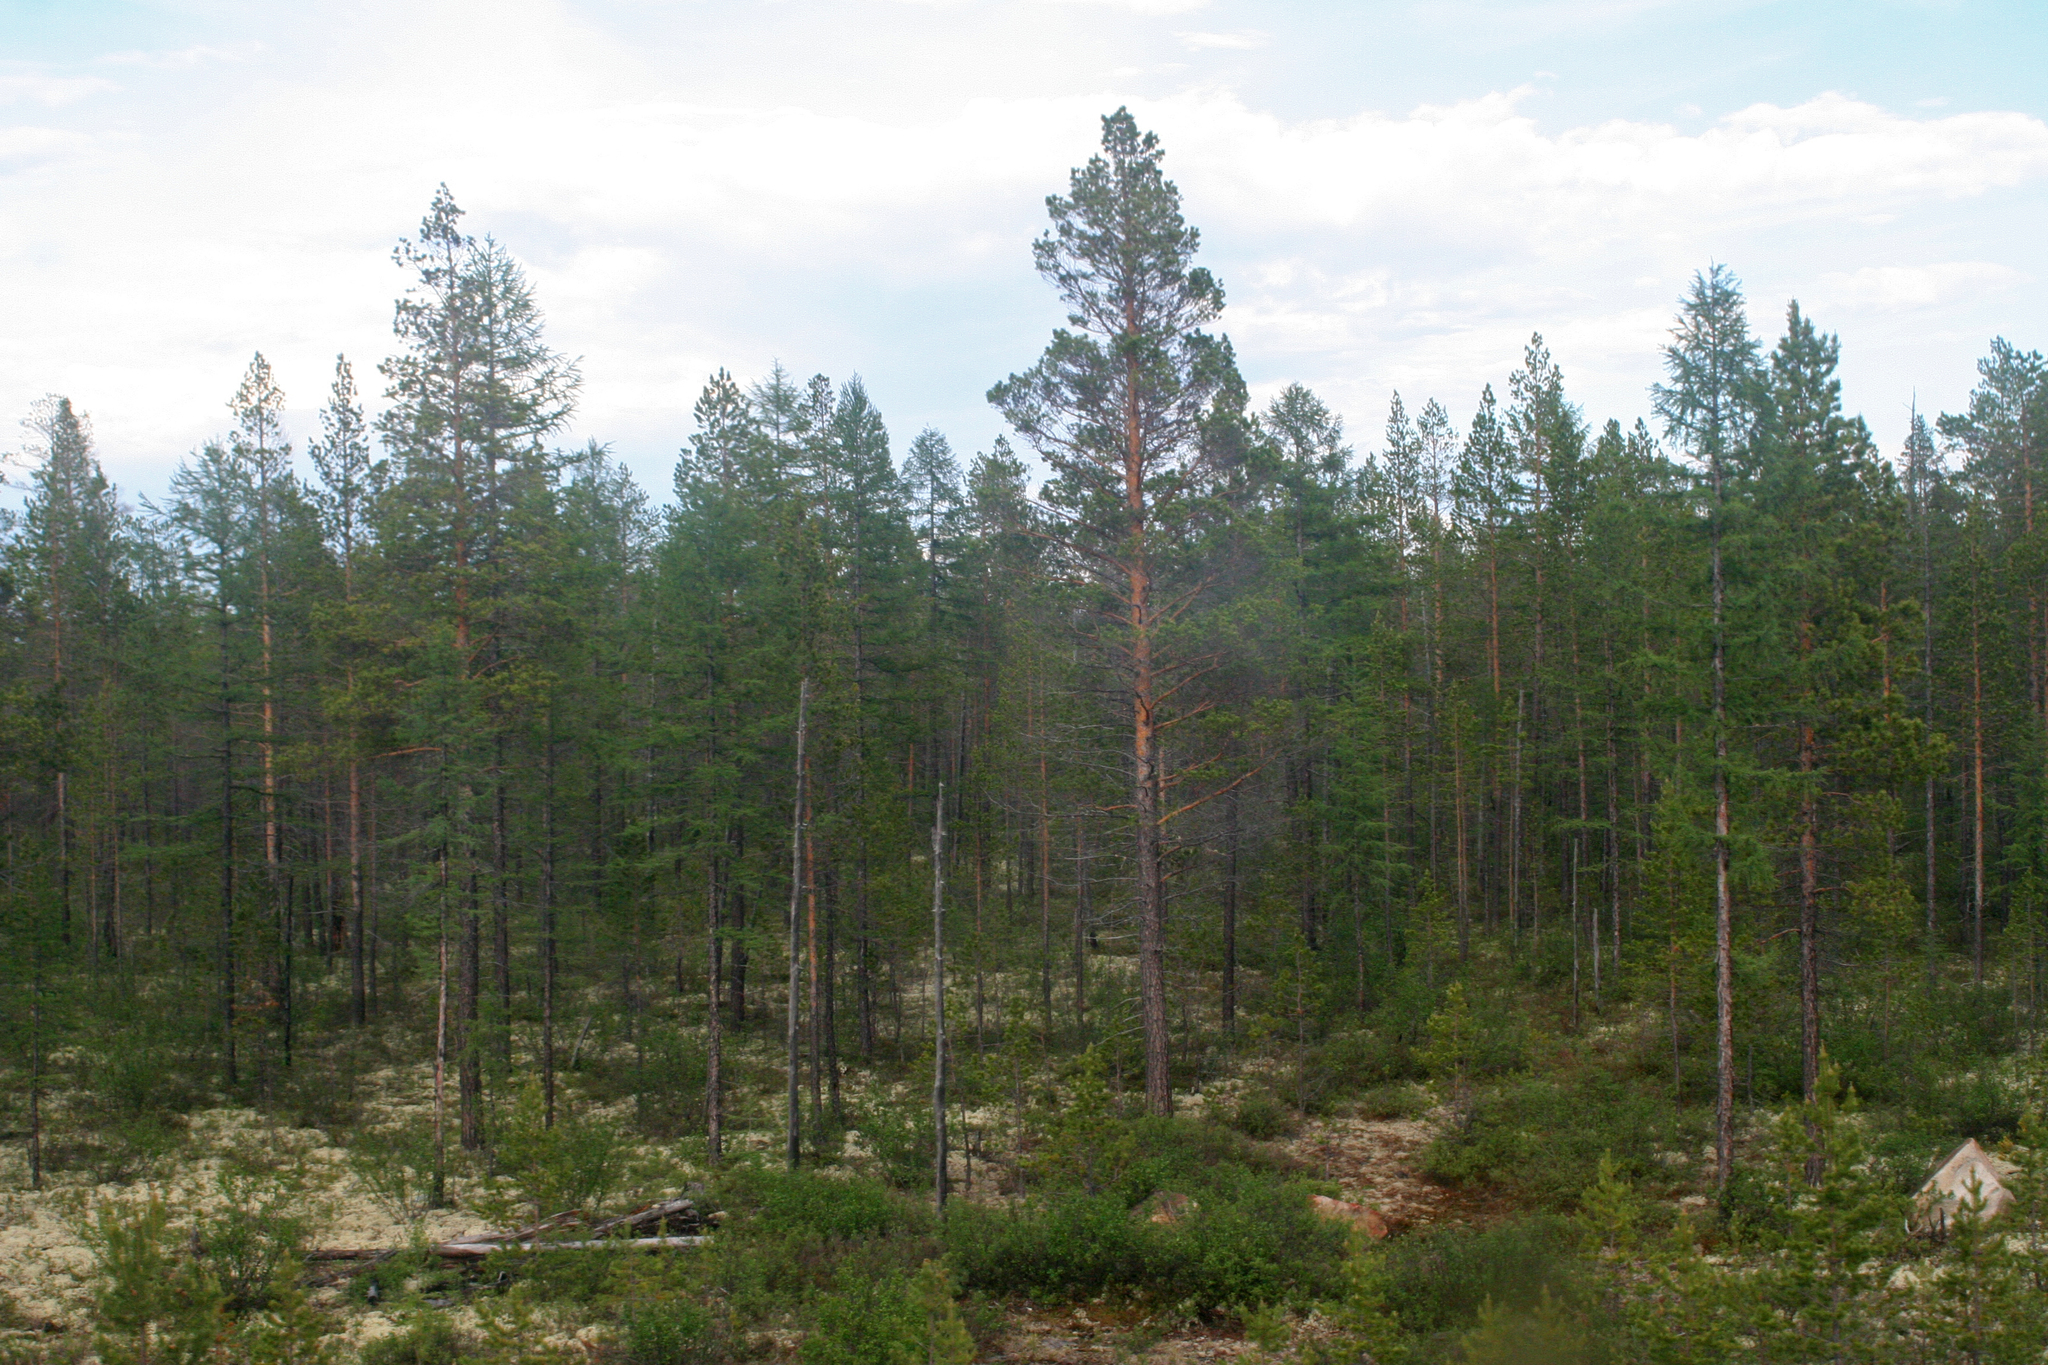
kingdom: Plantae
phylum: Tracheophyta
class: Pinopsida
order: Pinales
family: Pinaceae
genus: Pinus
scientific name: Pinus sylvestris
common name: Scots pine
